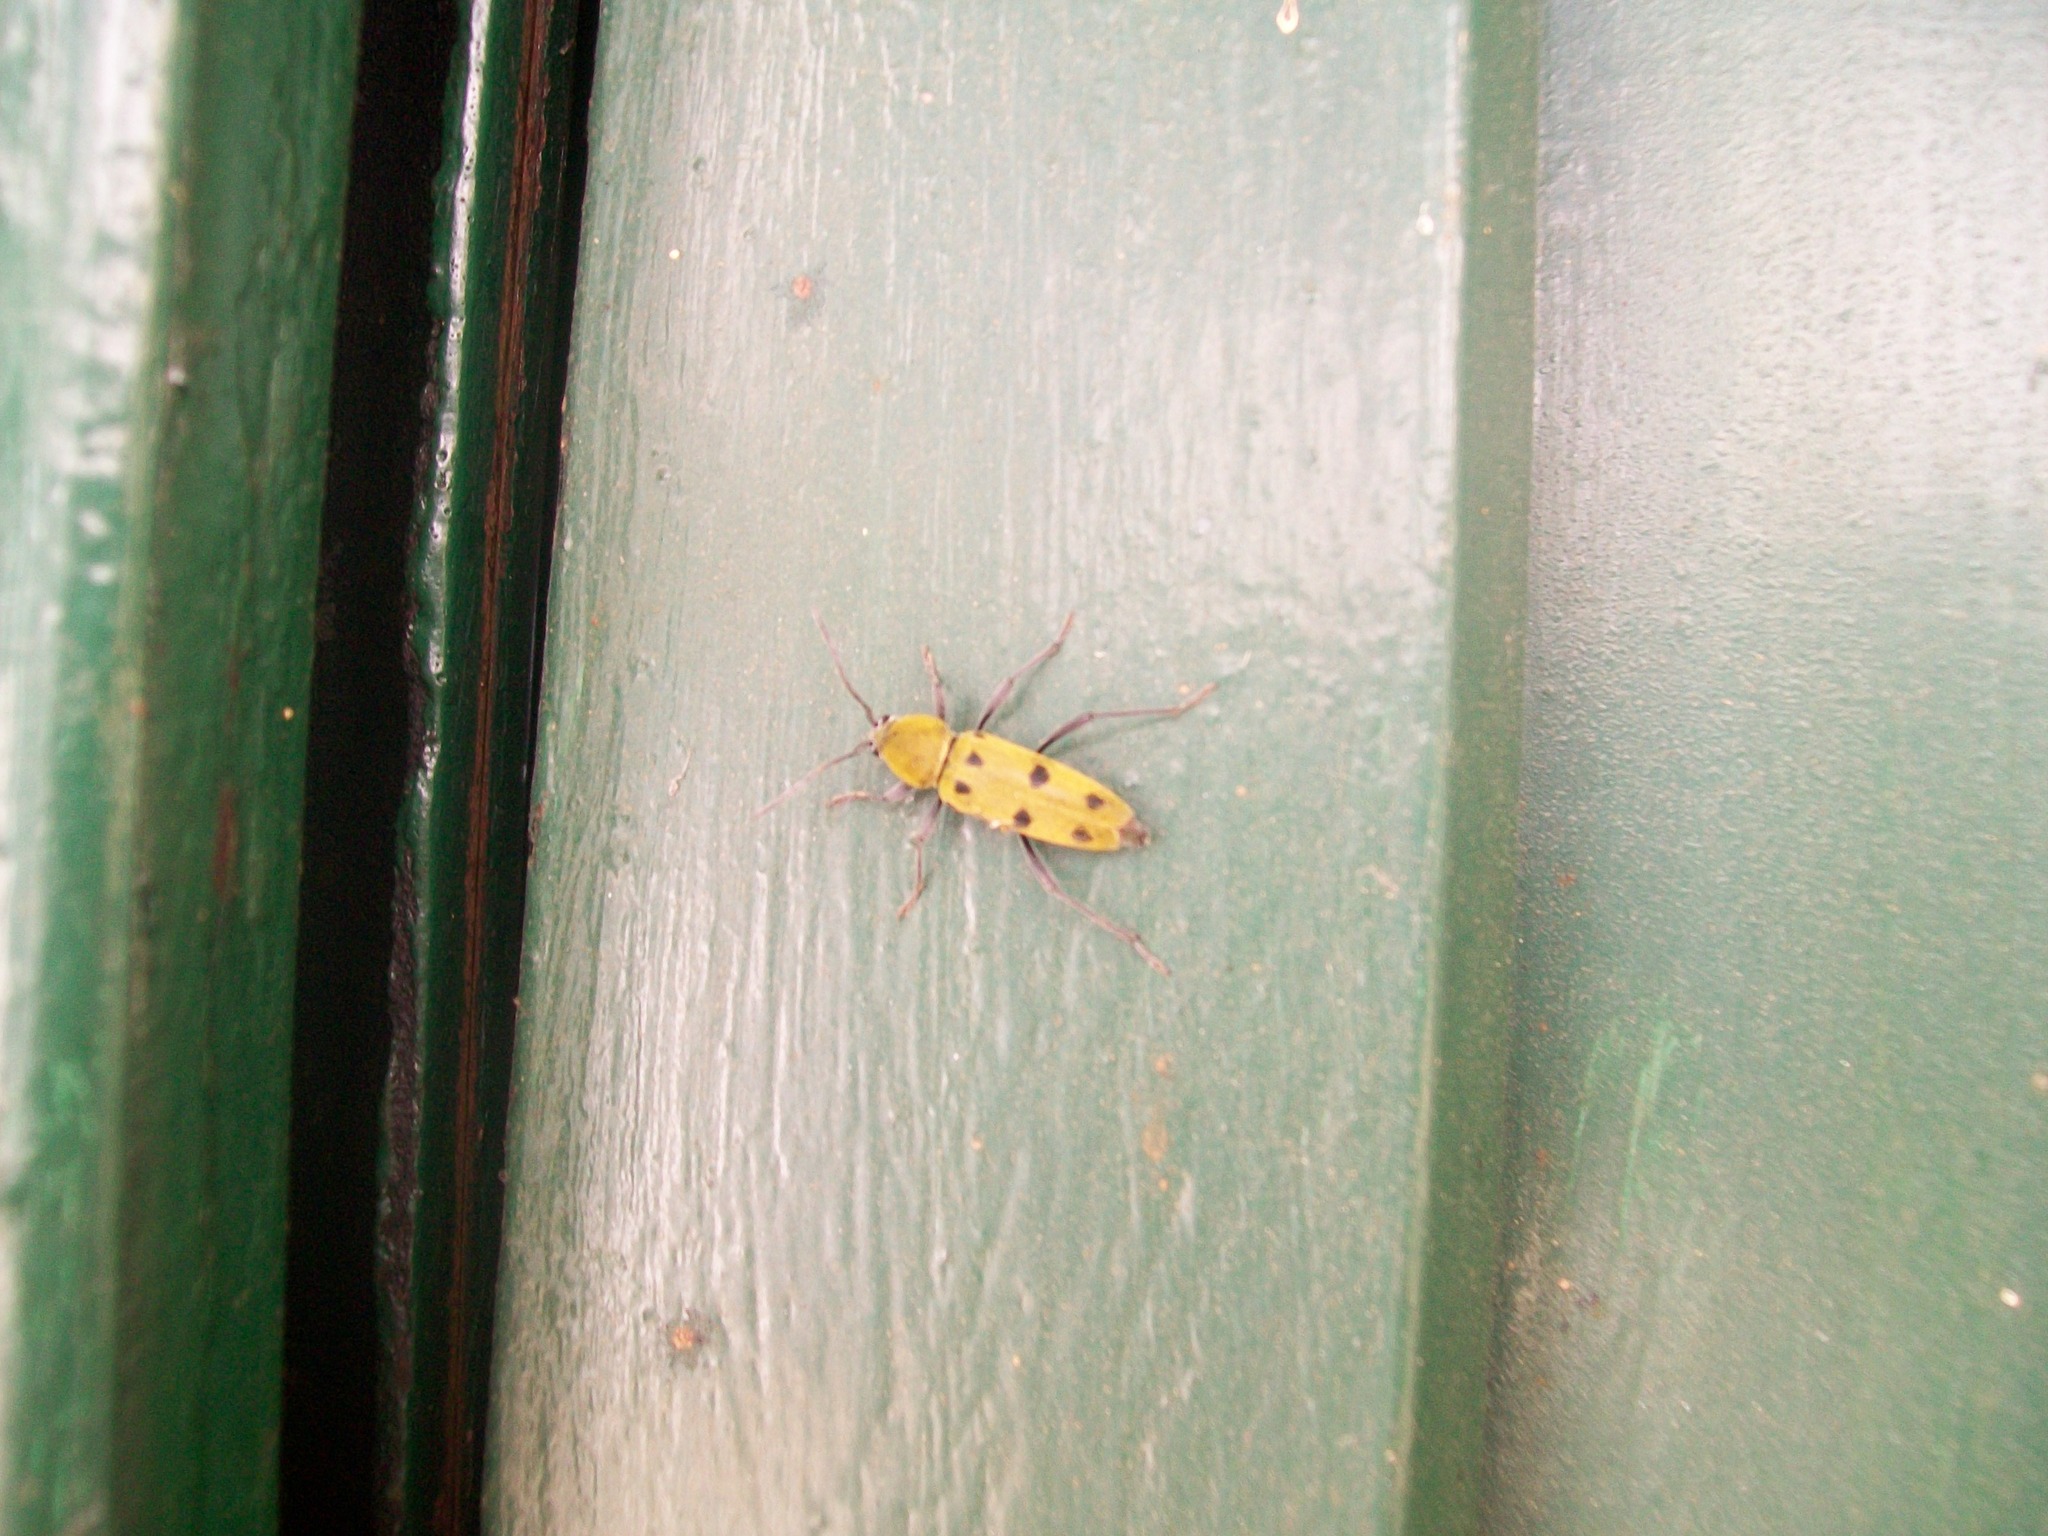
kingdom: Animalia
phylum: Arthropoda
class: Insecta
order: Coleoptera
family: Cerambycidae
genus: Chlorophorus
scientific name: Chlorophorus glabromaculatus
